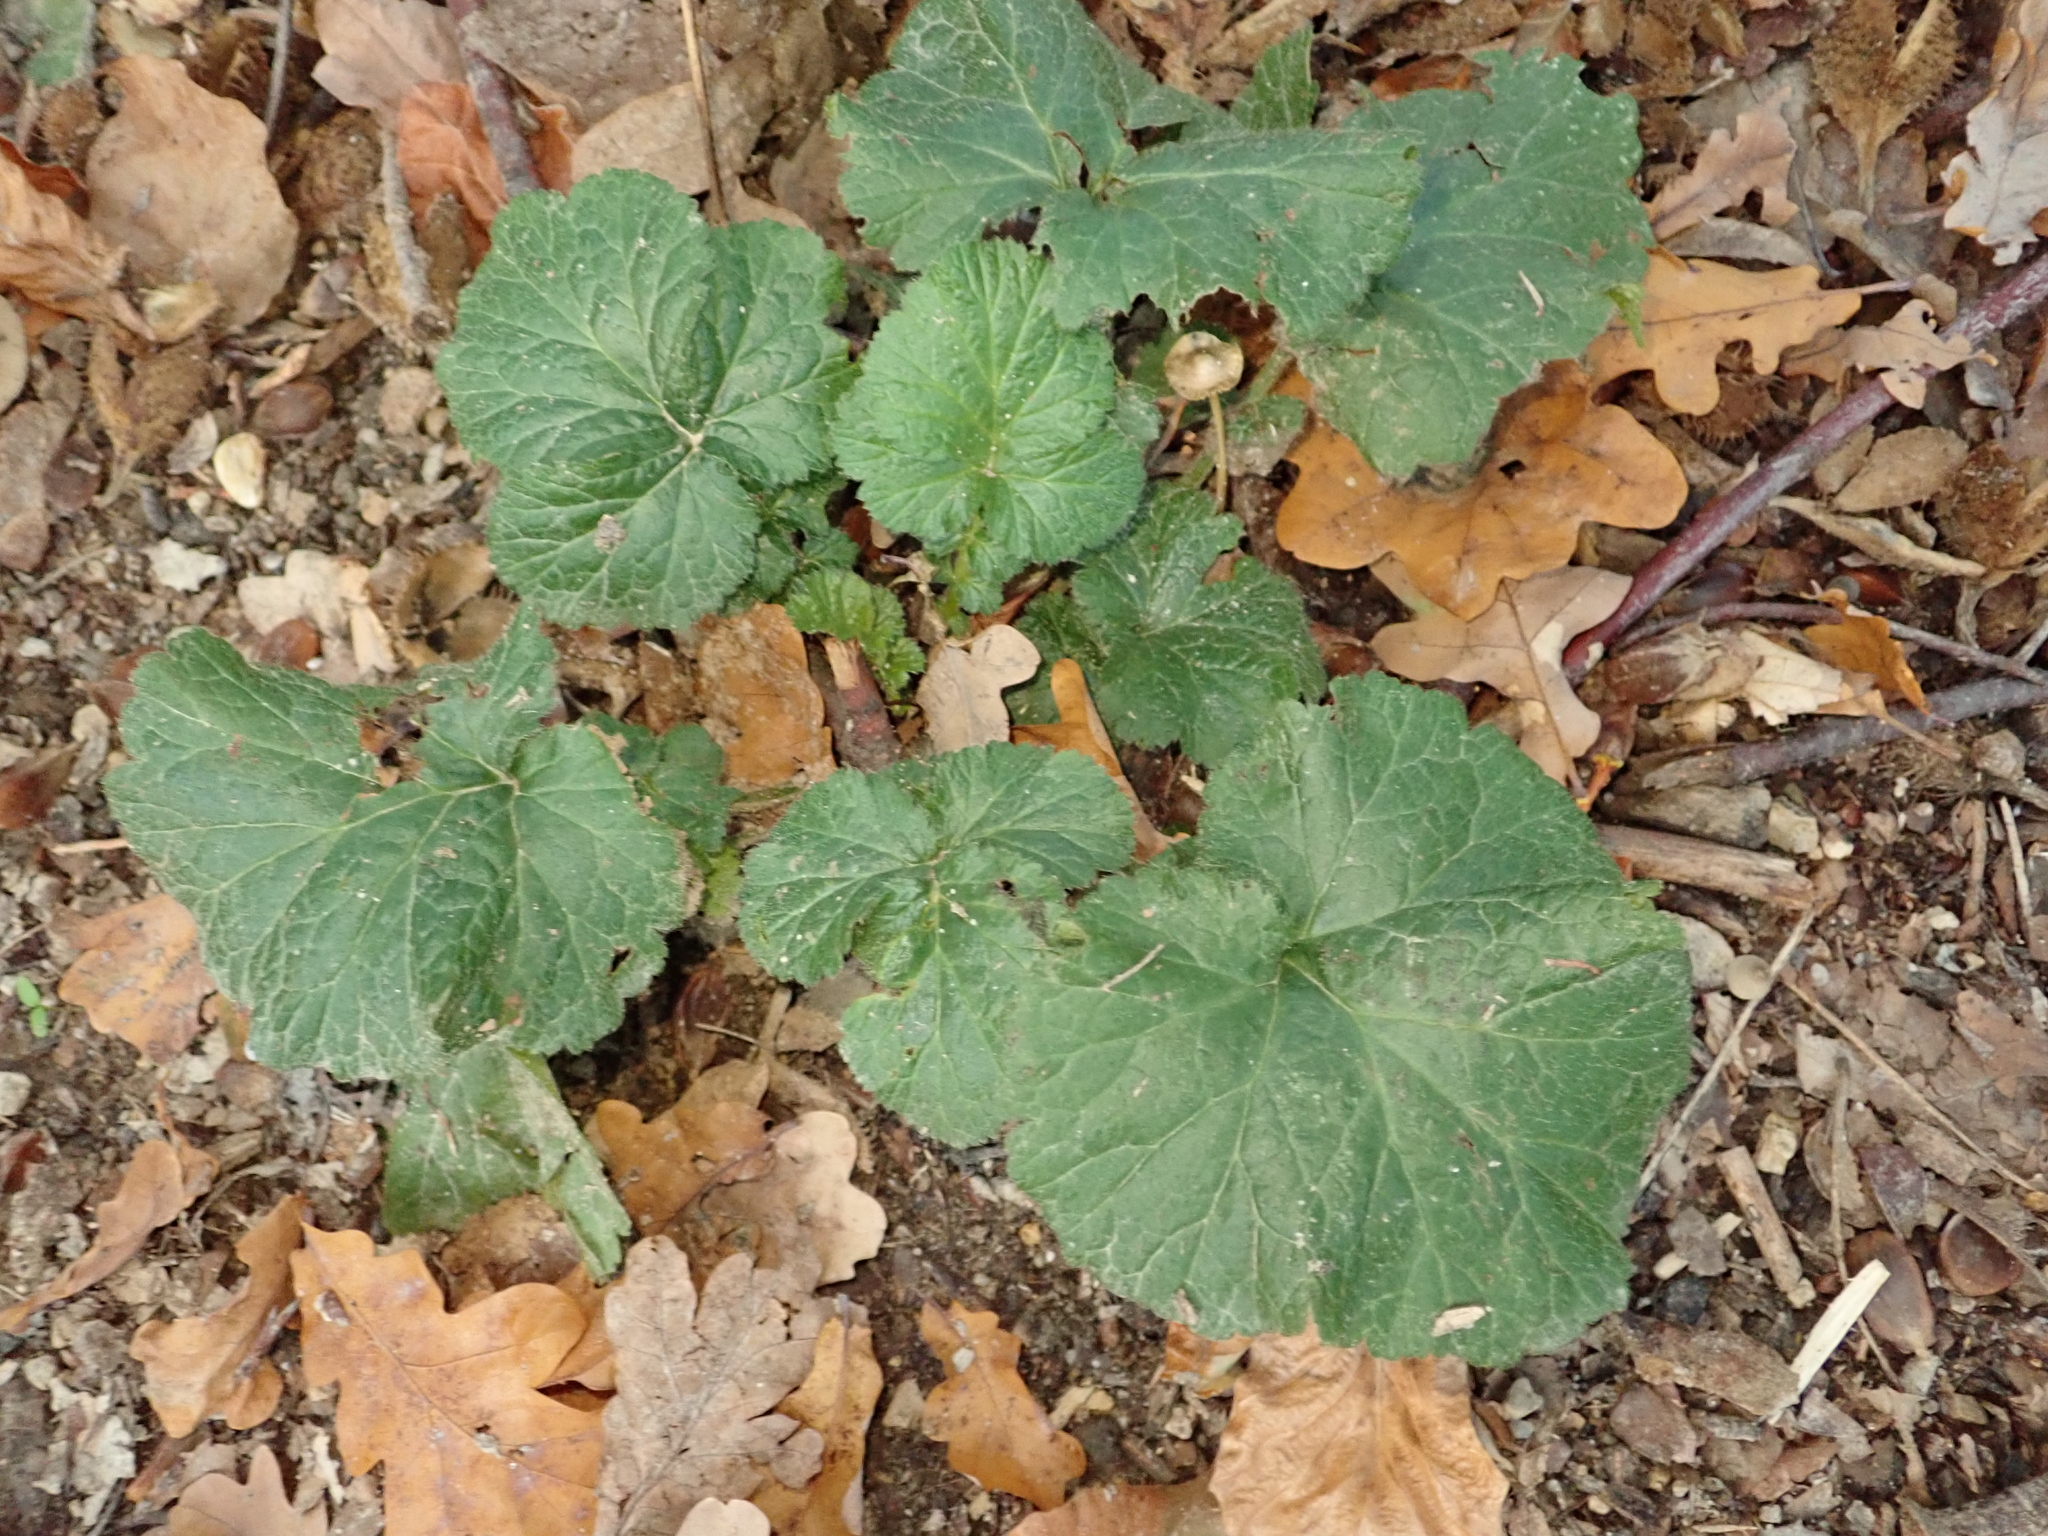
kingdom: Plantae
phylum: Tracheophyta
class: Magnoliopsida
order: Rosales
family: Rosaceae
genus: Geum
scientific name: Geum urbanum
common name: Wood avens
